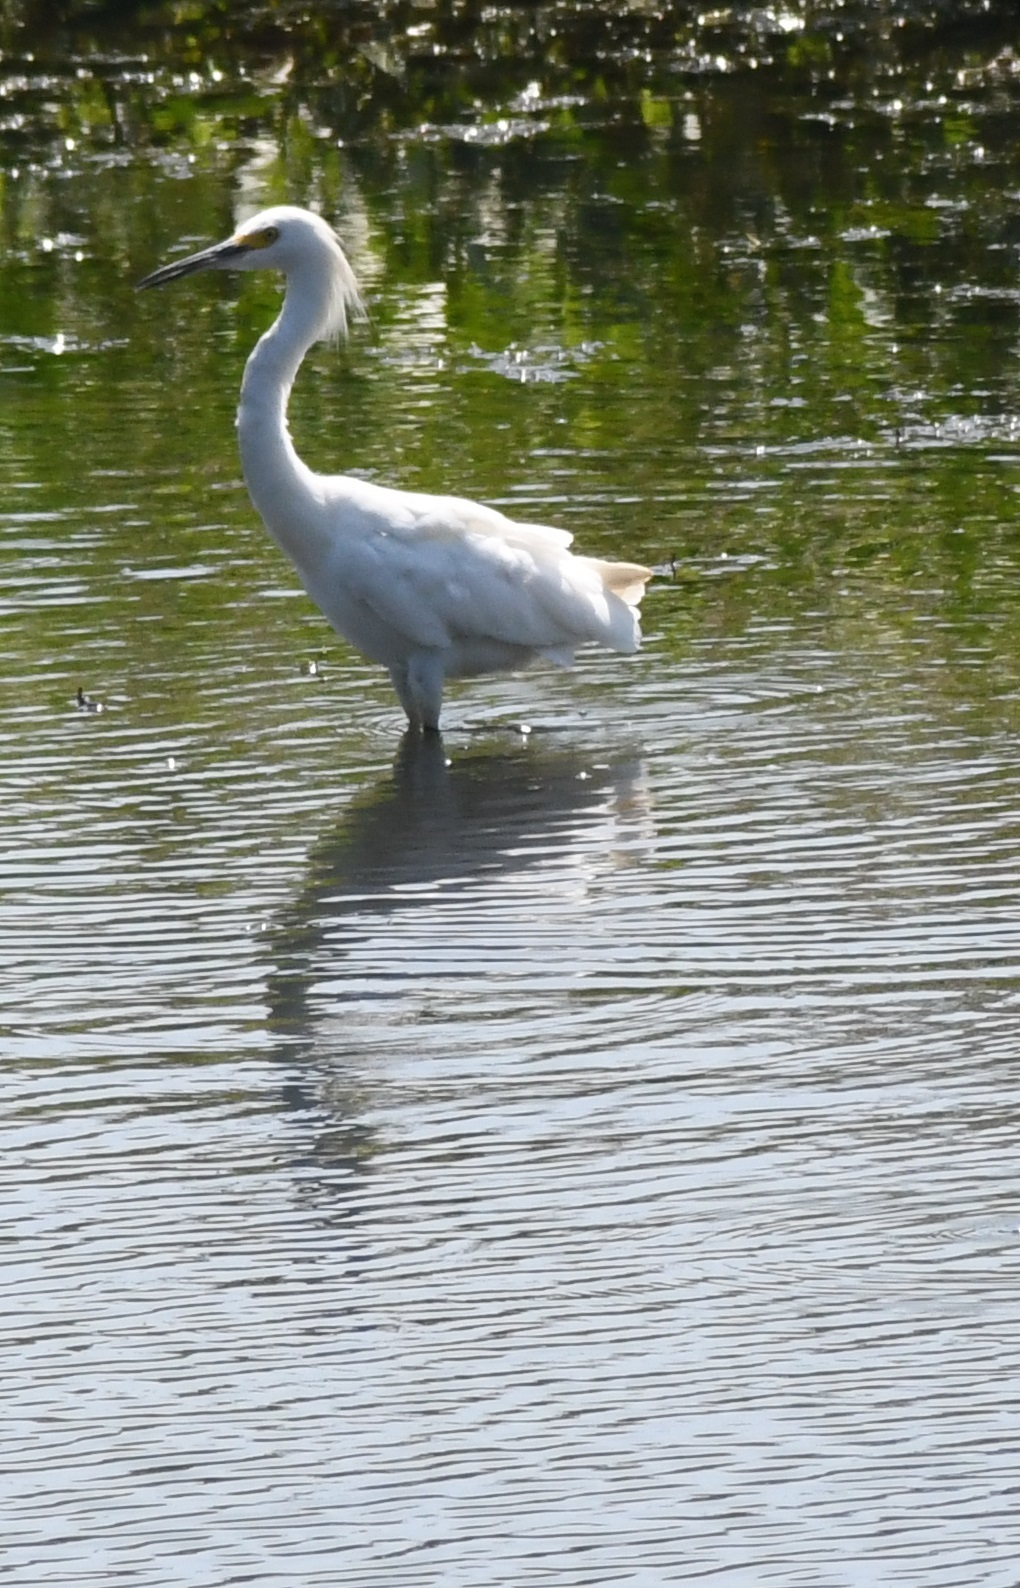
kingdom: Animalia
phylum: Chordata
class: Aves
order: Pelecaniformes
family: Ardeidae
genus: Egretta
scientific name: Egretta thula
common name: Snowy egret
